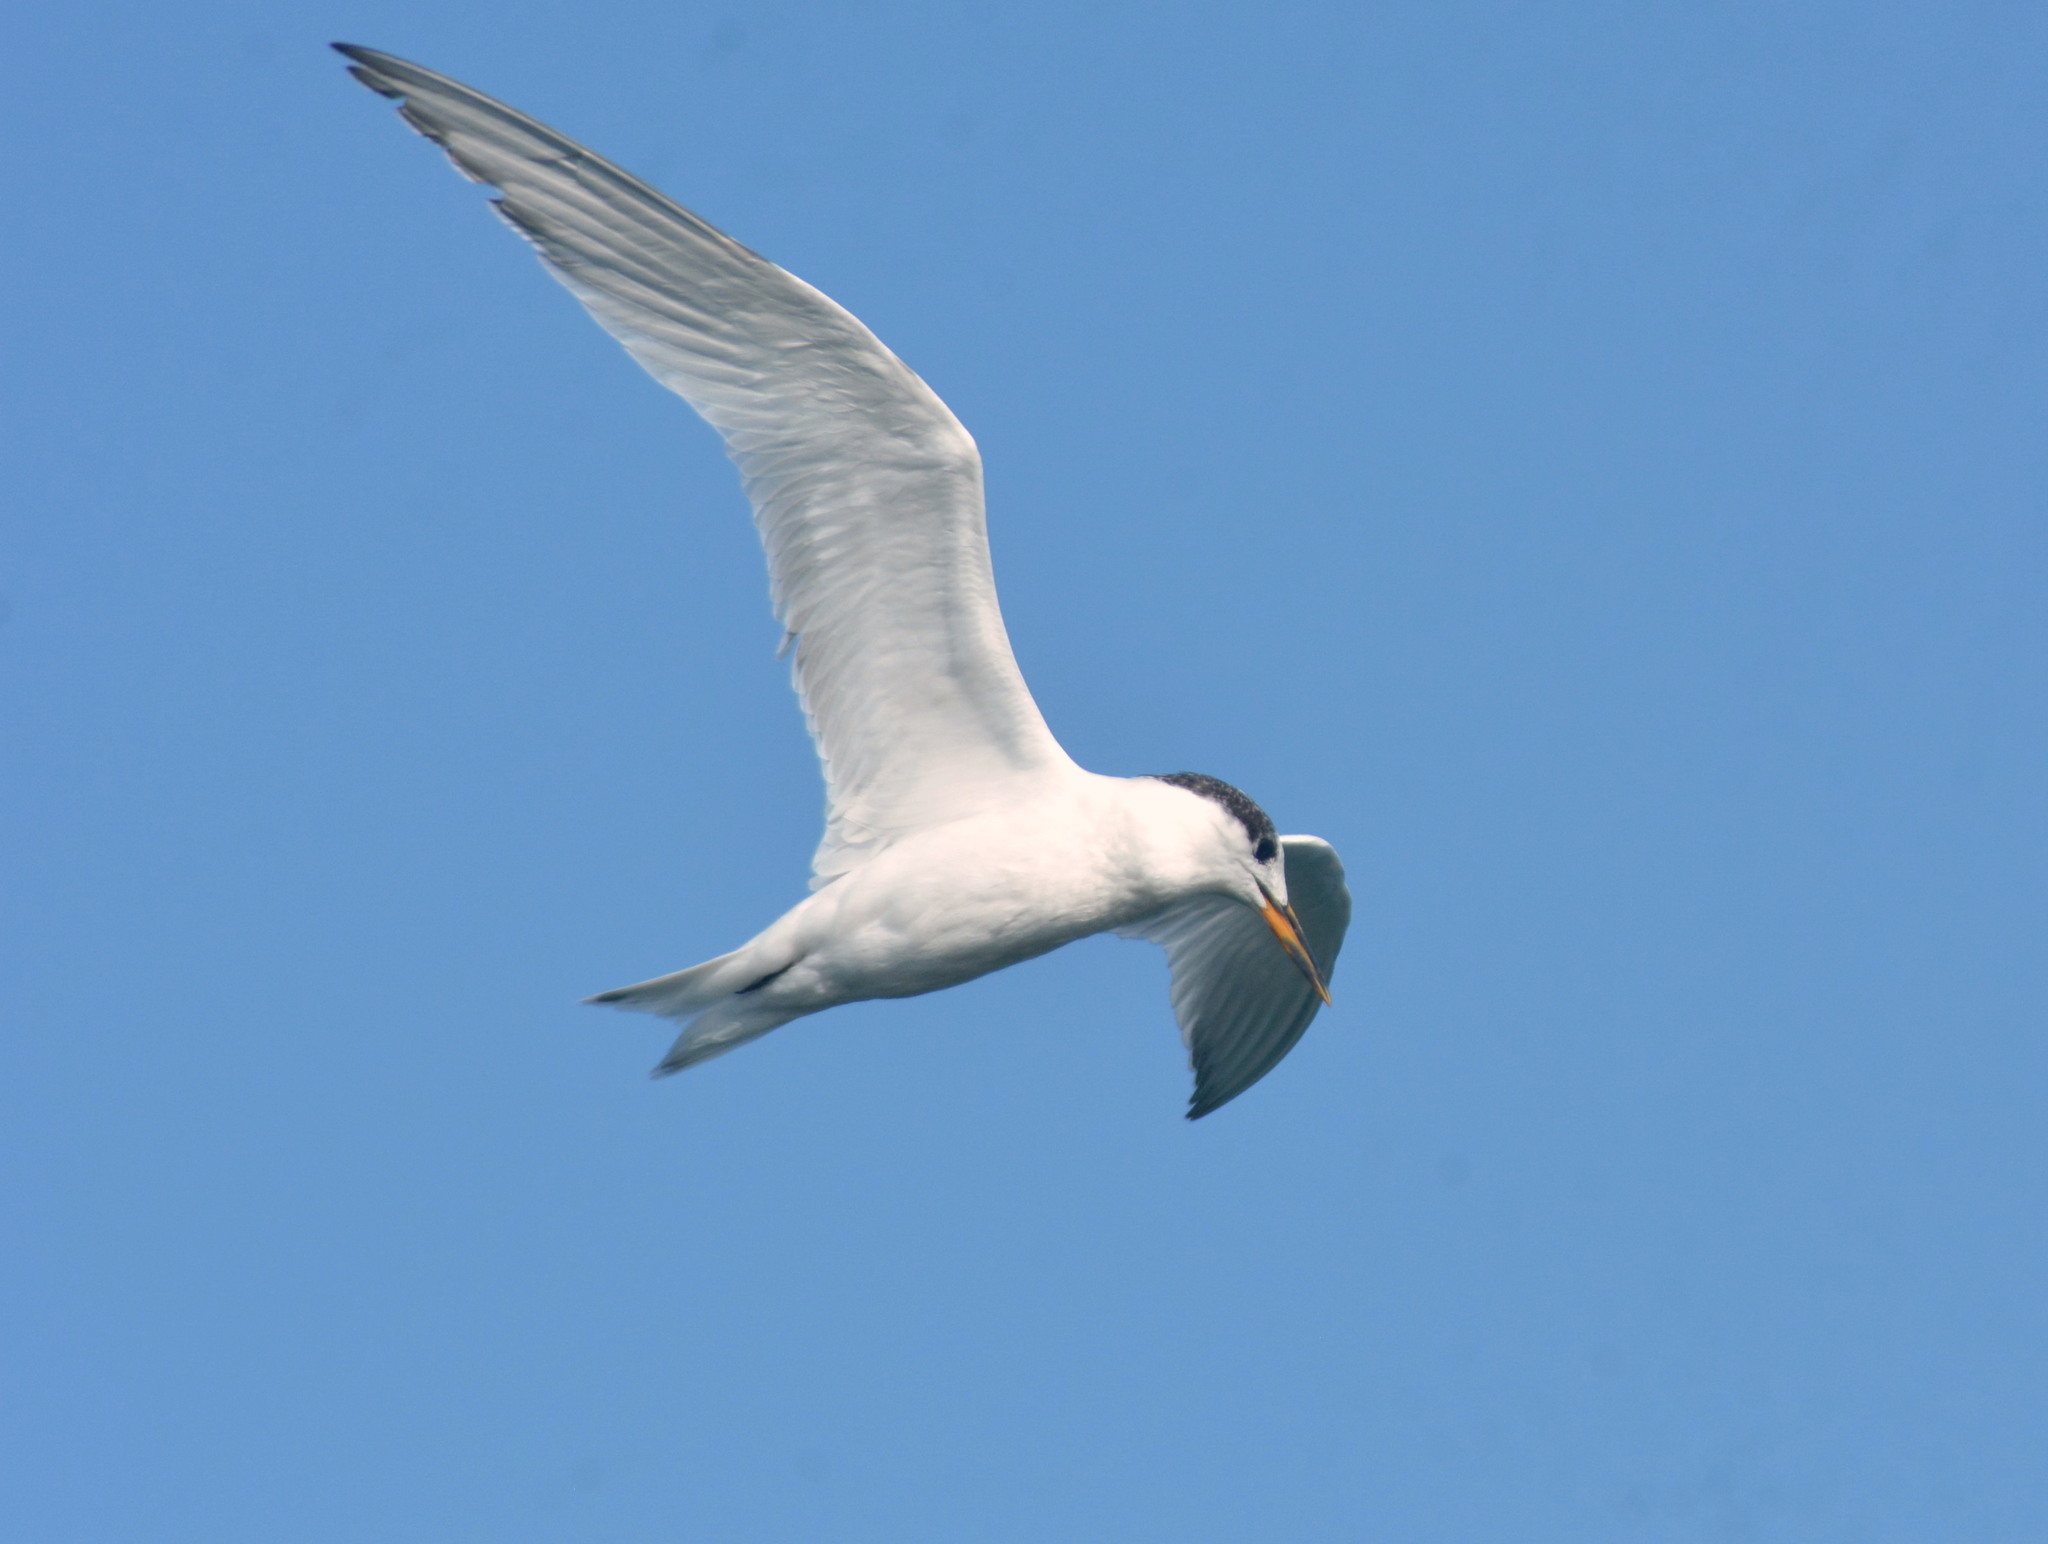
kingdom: Animalia
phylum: Chordata
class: Aves
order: Charadriiformes
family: Laridae
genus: Thalasseus
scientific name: Thalasseus sandvicensis
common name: Sandwich tern
